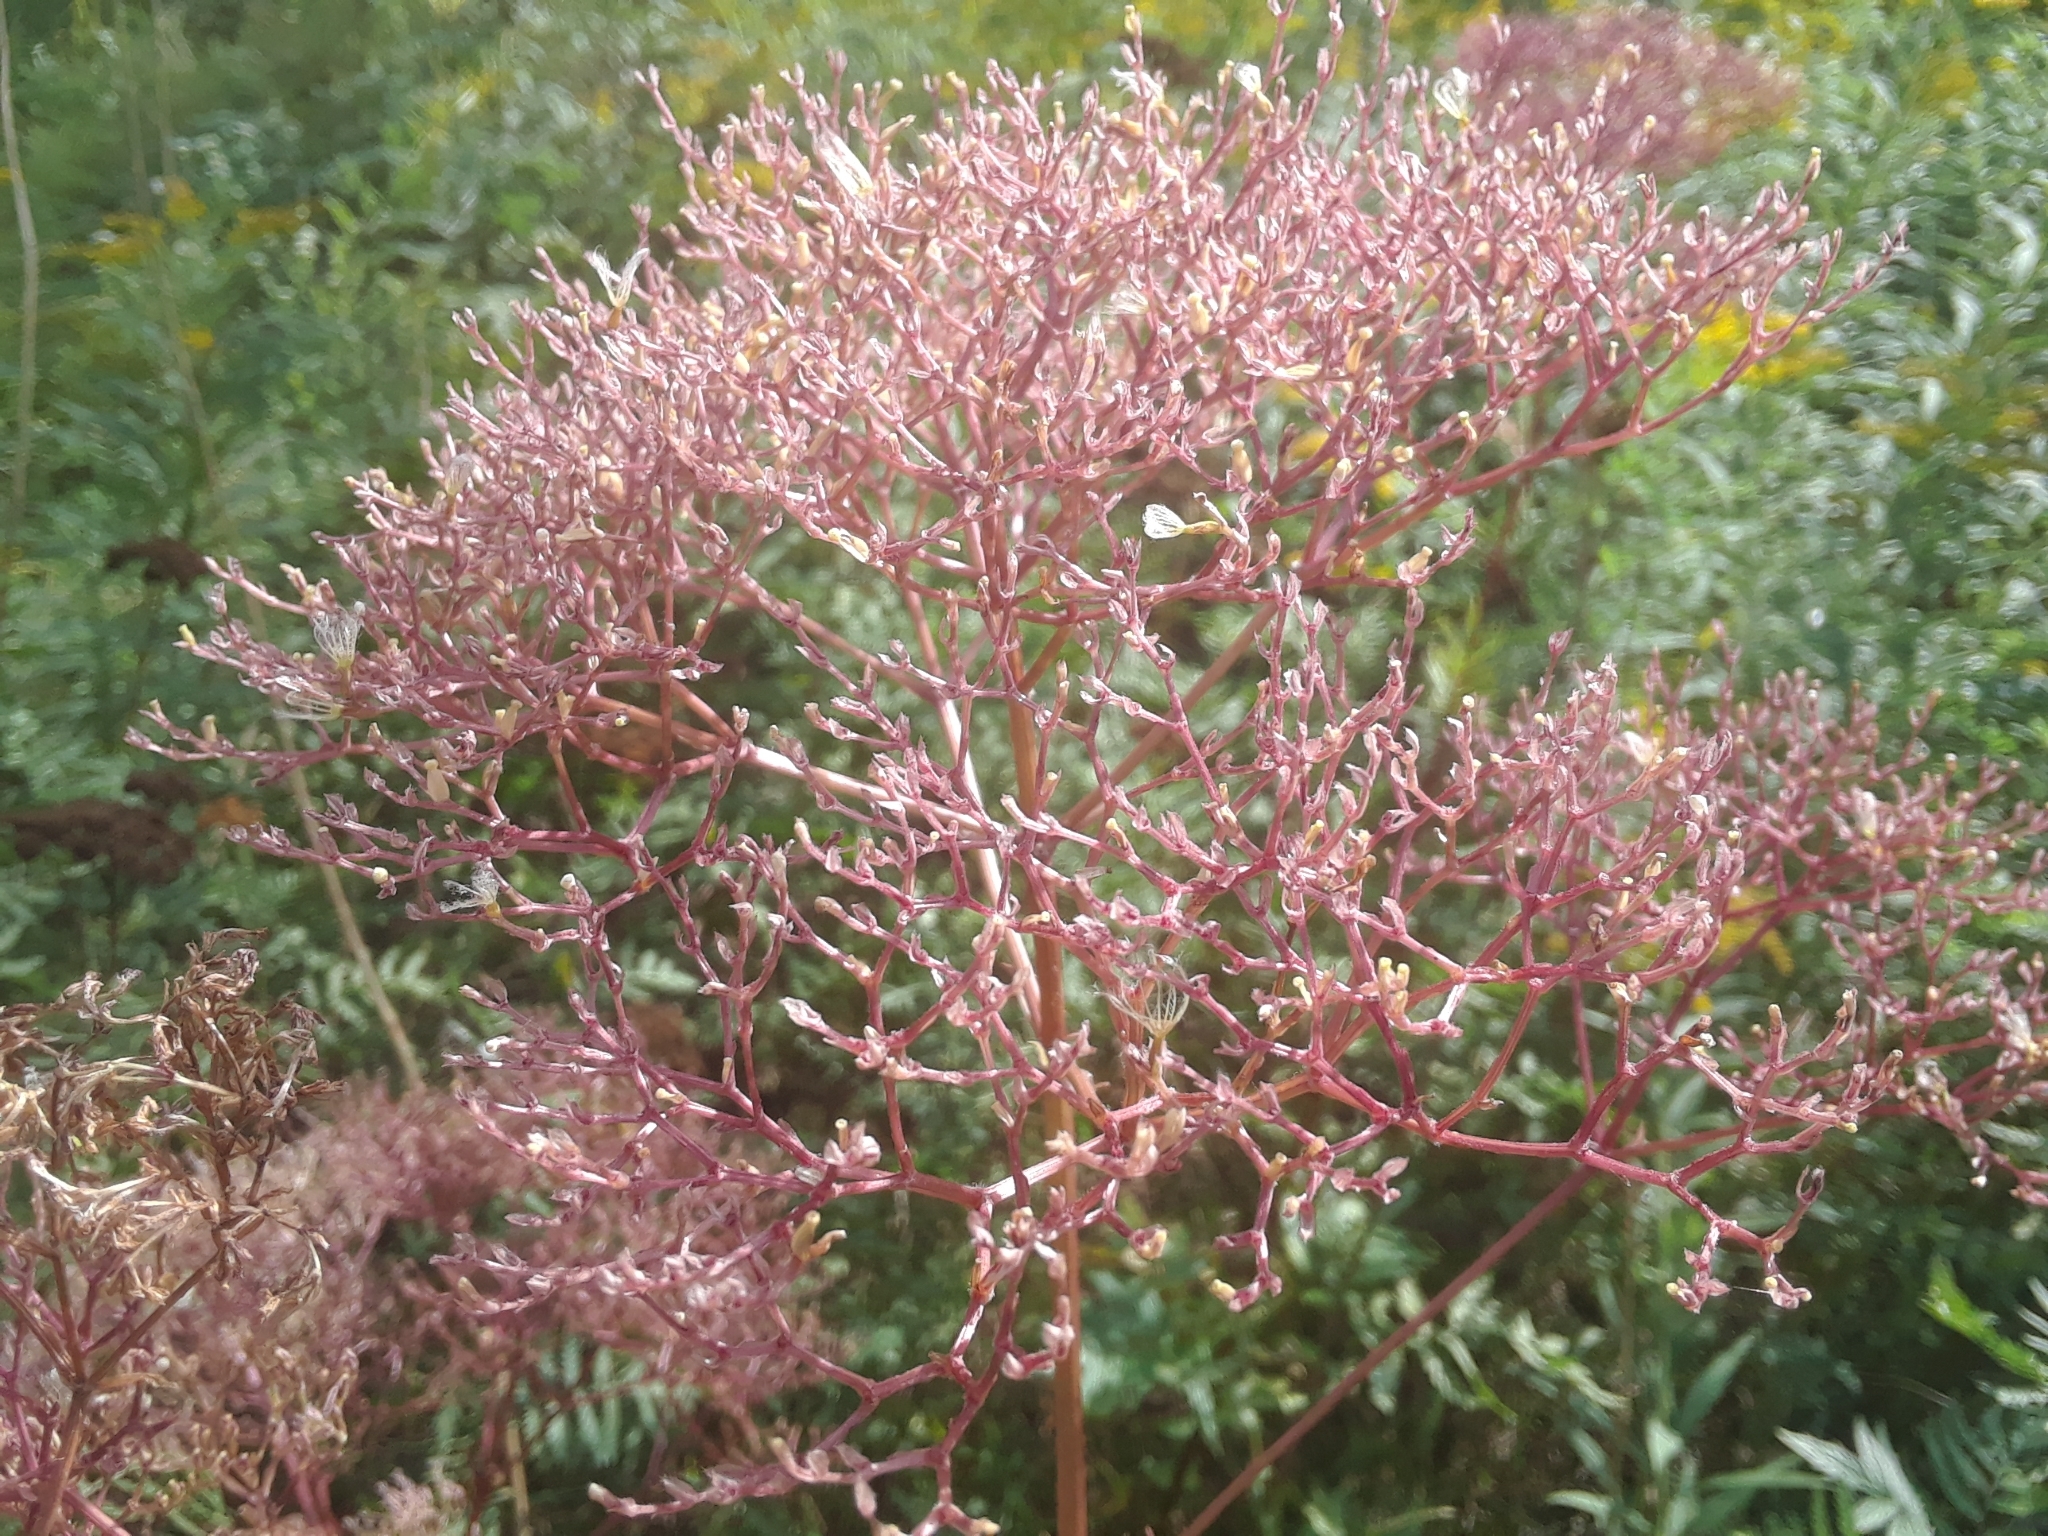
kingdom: Plantae
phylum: Tracheophyta
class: Magnoliopsida
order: Dipsacales
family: Caprifoliaceae
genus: Valeriana
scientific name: Valeriana officinalis
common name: Common valerian
